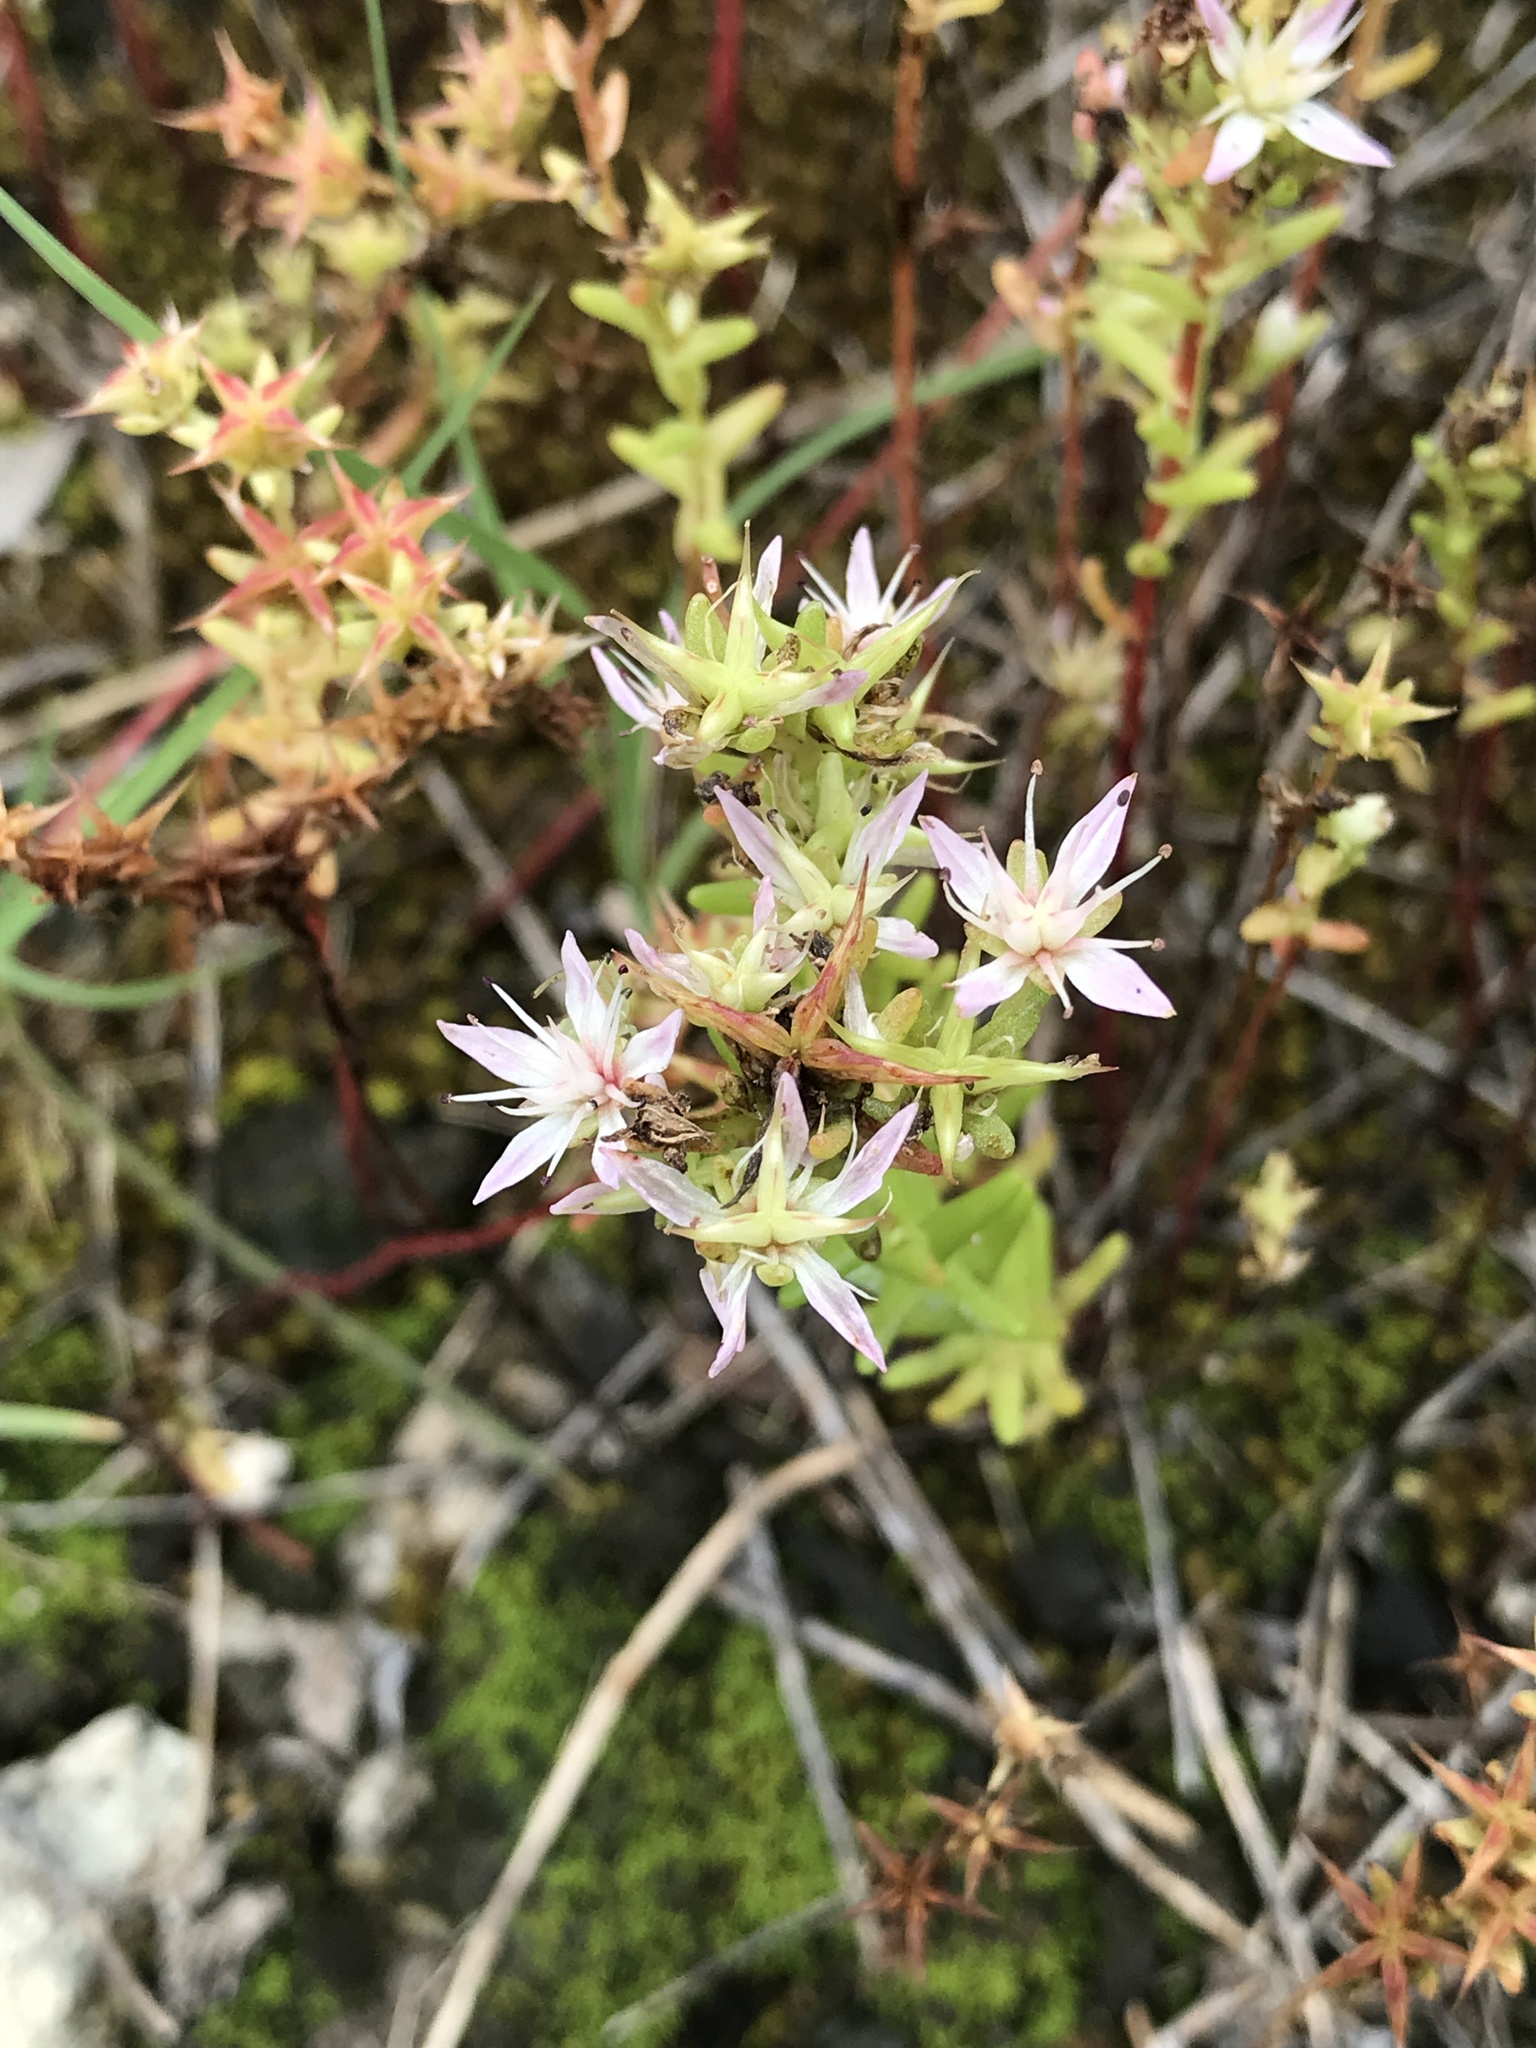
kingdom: Plantae
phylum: Tracheophyta
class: Magnoliopsida
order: Saxifragales
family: Crassulaceae
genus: Sedum
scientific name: Sedum pulchellum
